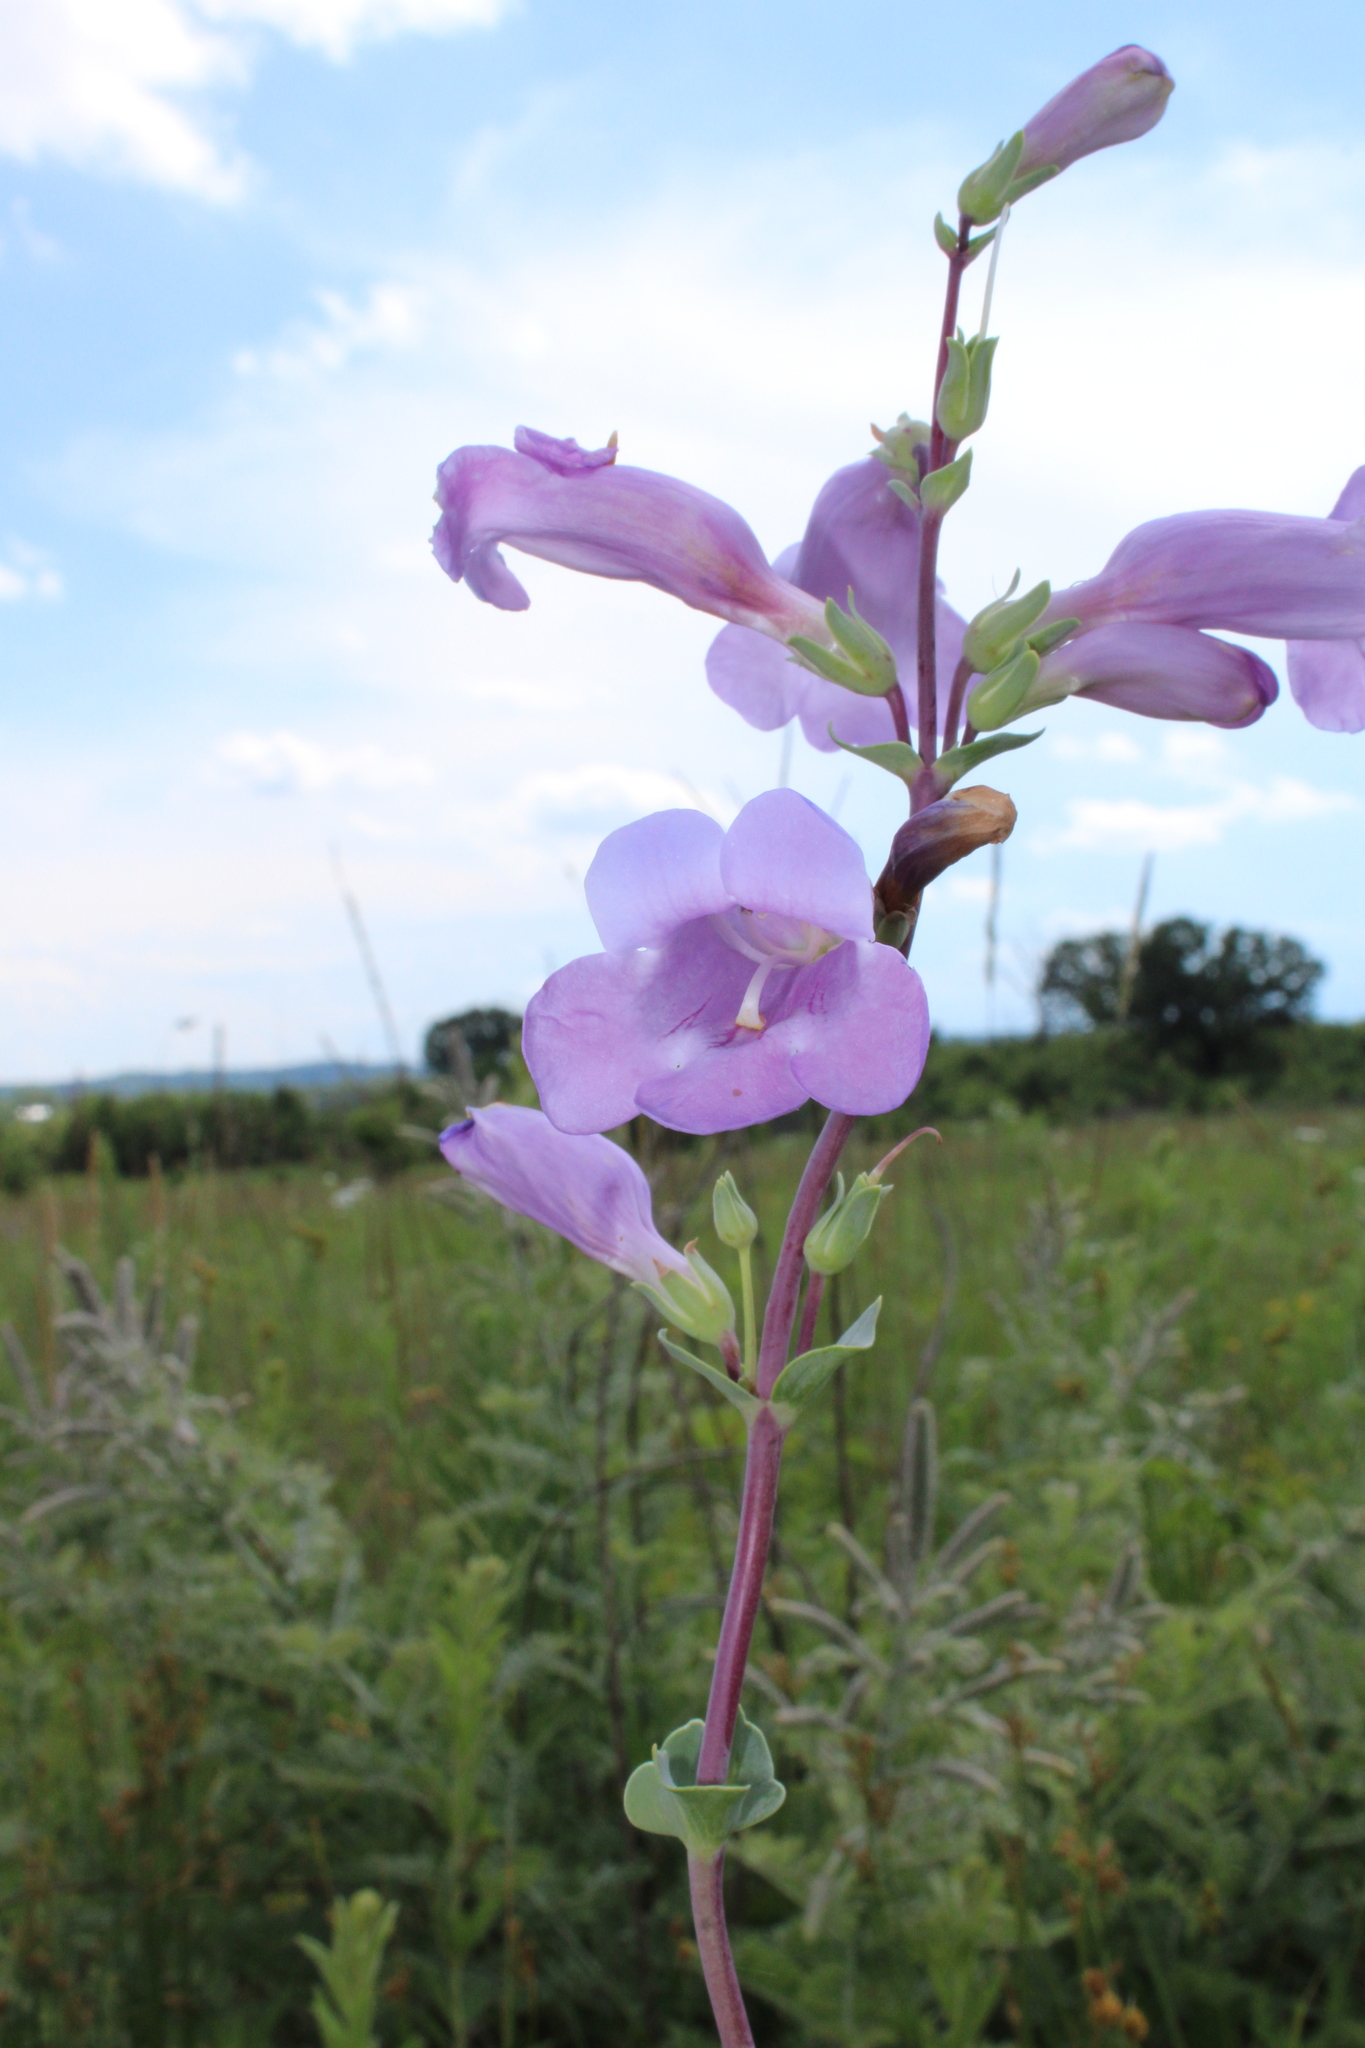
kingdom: Plantae
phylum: Tracheophyta
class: Magnoliopsida
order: Lamiales
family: Plantaginaceae
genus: Penstemon
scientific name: Penstemon
